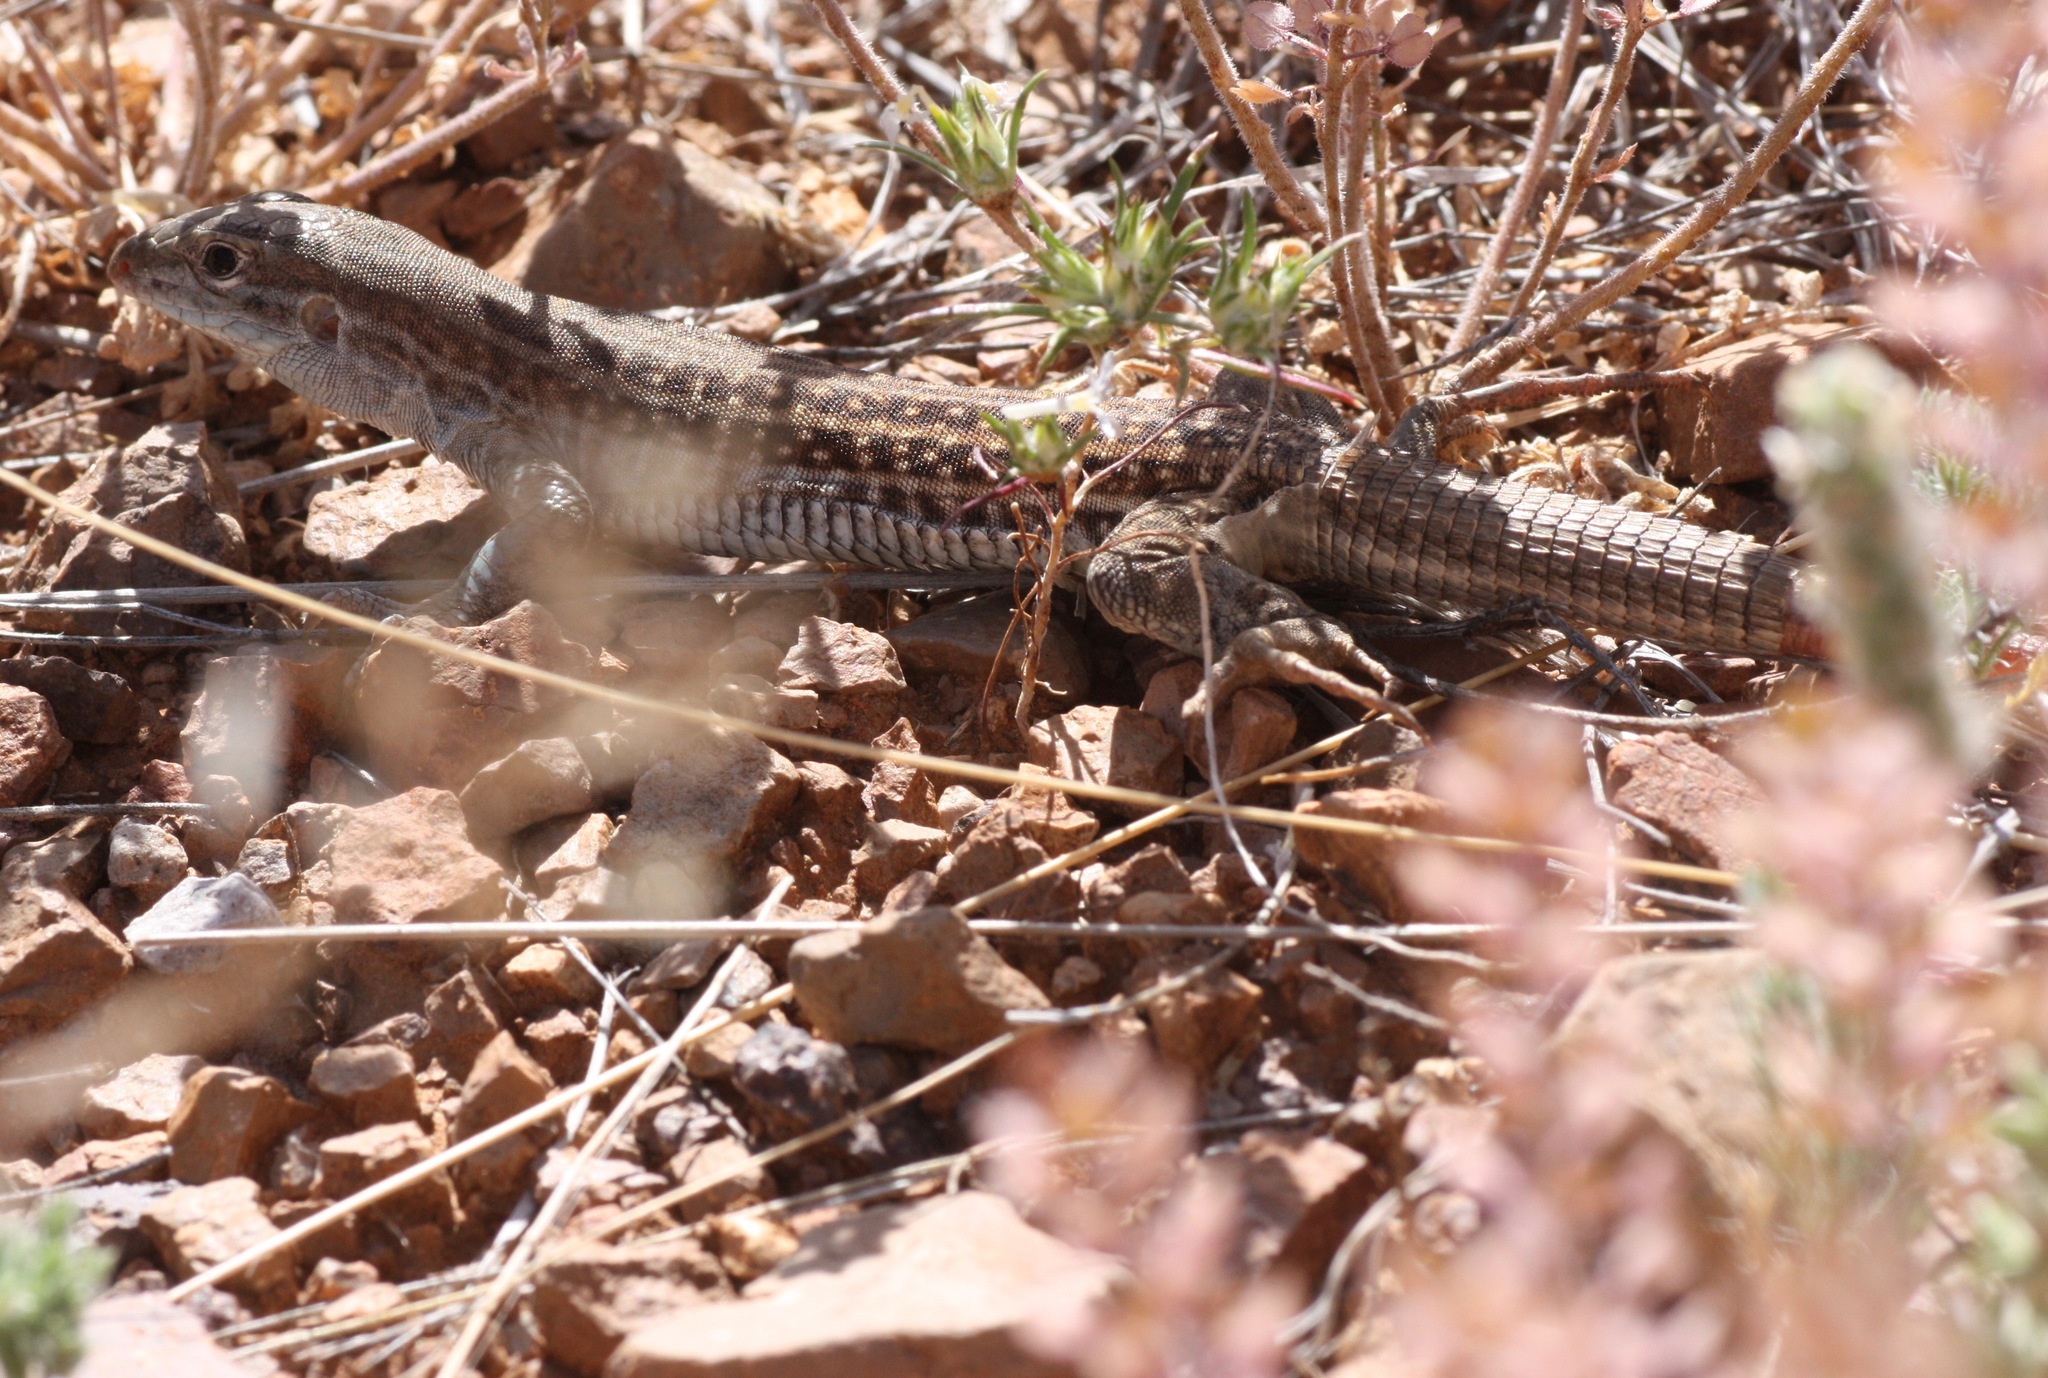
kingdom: Animalia
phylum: Chordata
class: Squamata
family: Teiidae
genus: Aspidoscelis
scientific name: Aspidoscelis exsanguis
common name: Chihuahuan spotted whiptail
